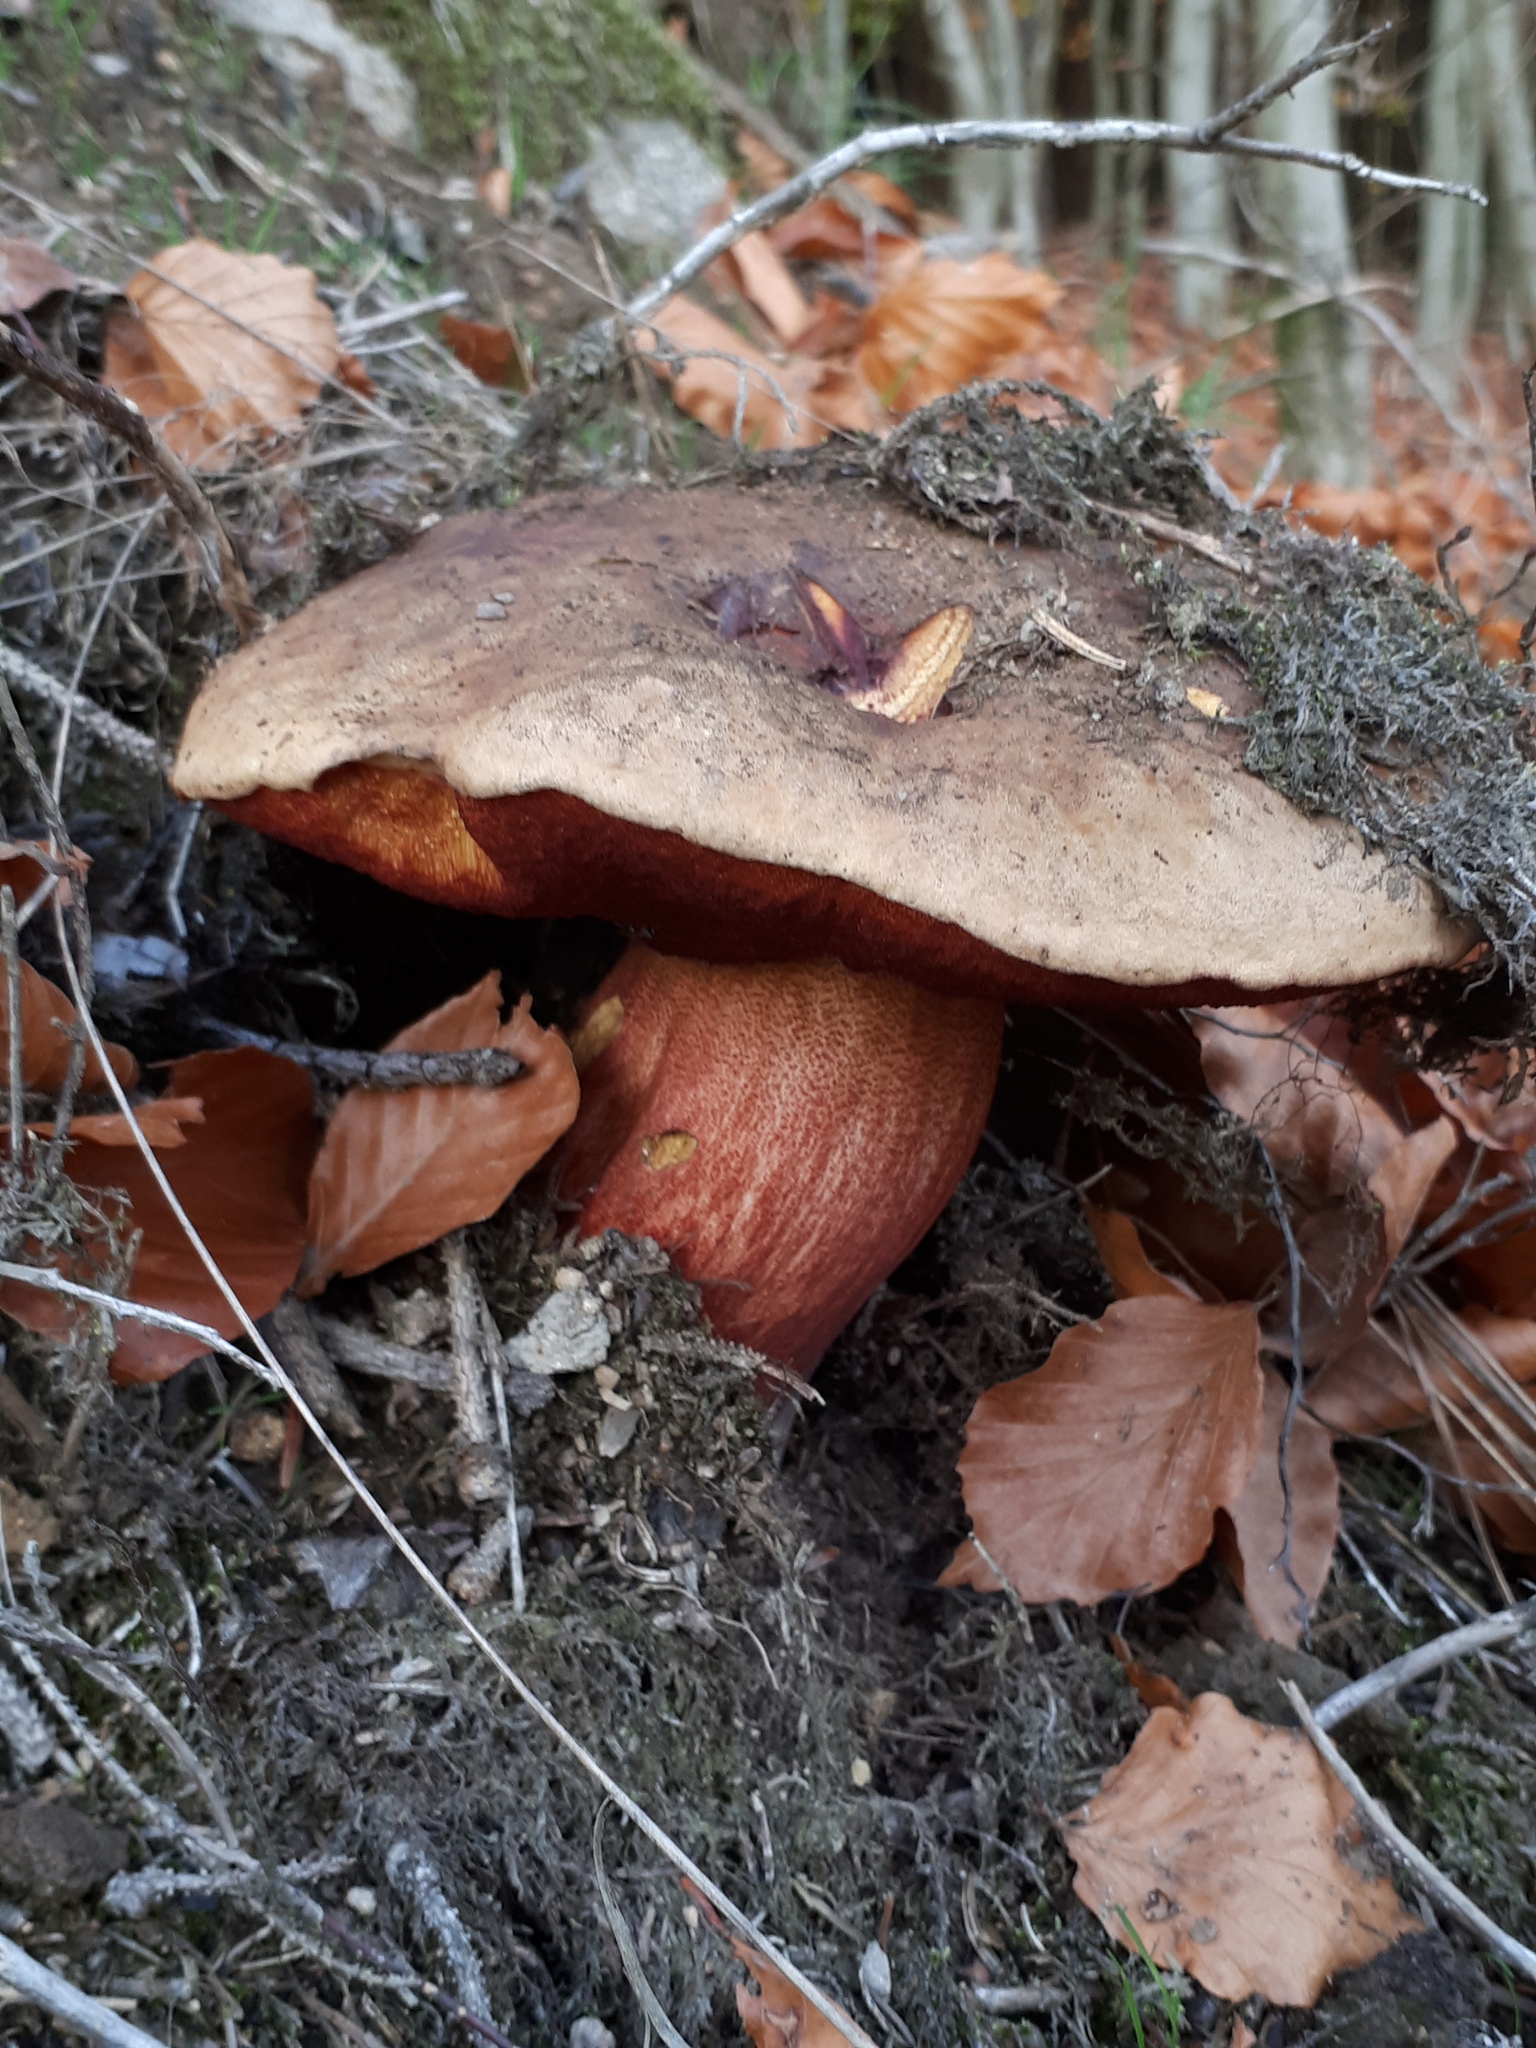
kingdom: Fungi
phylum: Basidiomycota
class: Agaricomycetes
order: Boletales
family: Boletaceae
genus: Neoboletus
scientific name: Neoboletus erythropus
